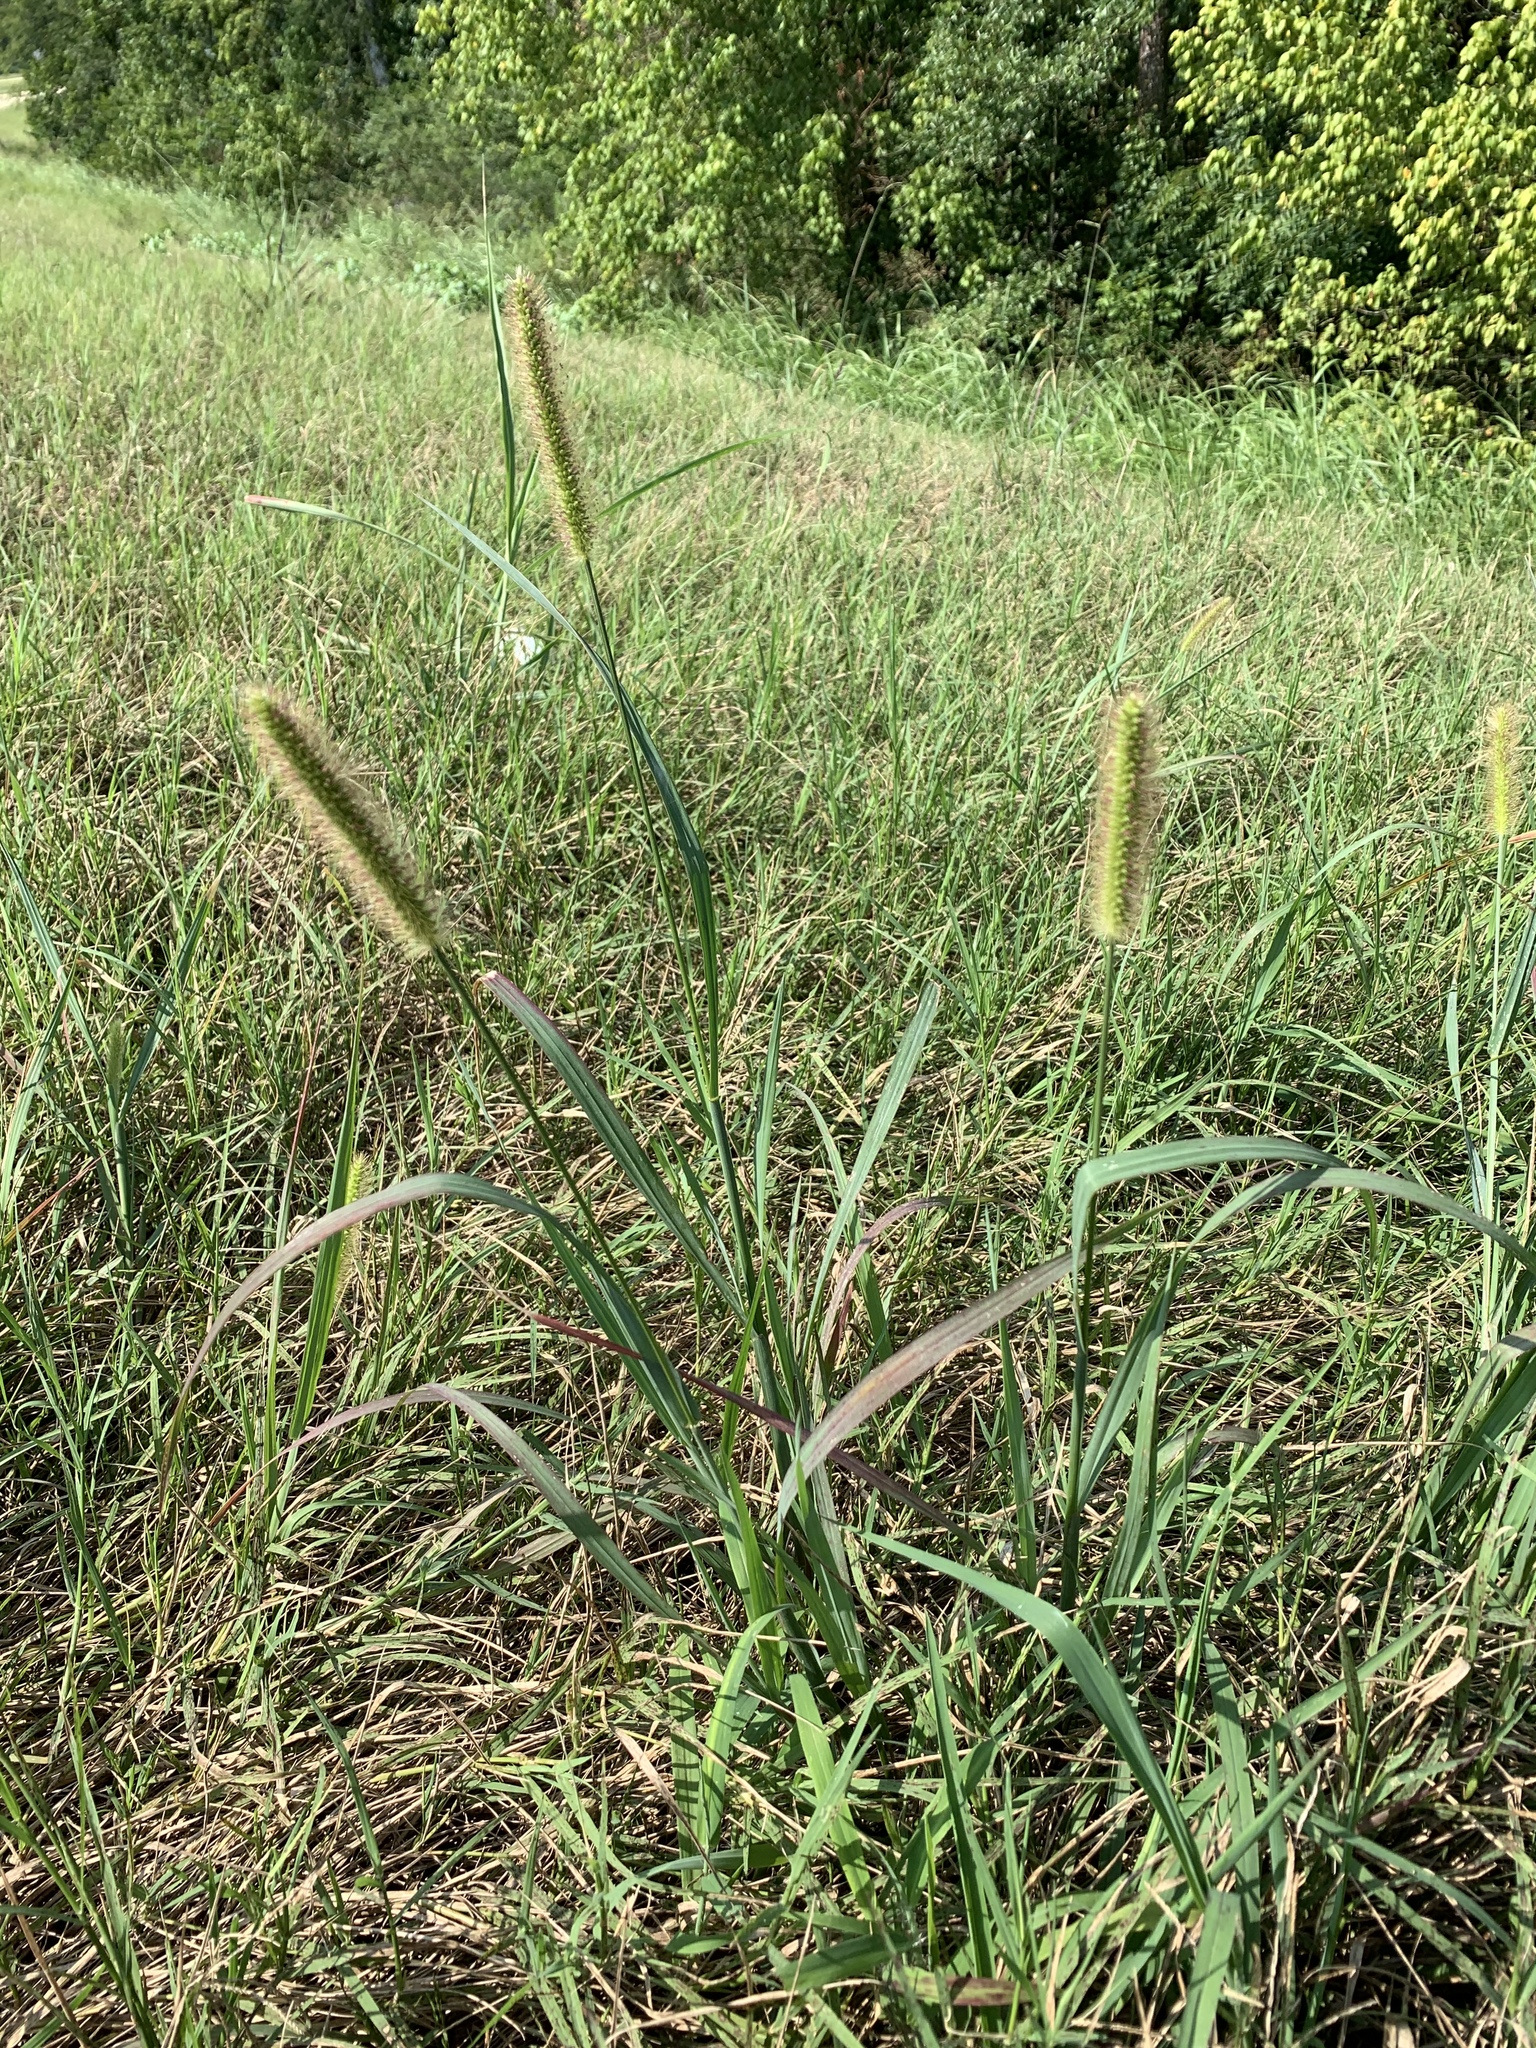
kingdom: Plantae
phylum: Tracheophyta
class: Liliopsida
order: Poales
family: Poaceae
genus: Setaria
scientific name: Setaria pumila
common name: Yellow bristle-grass
